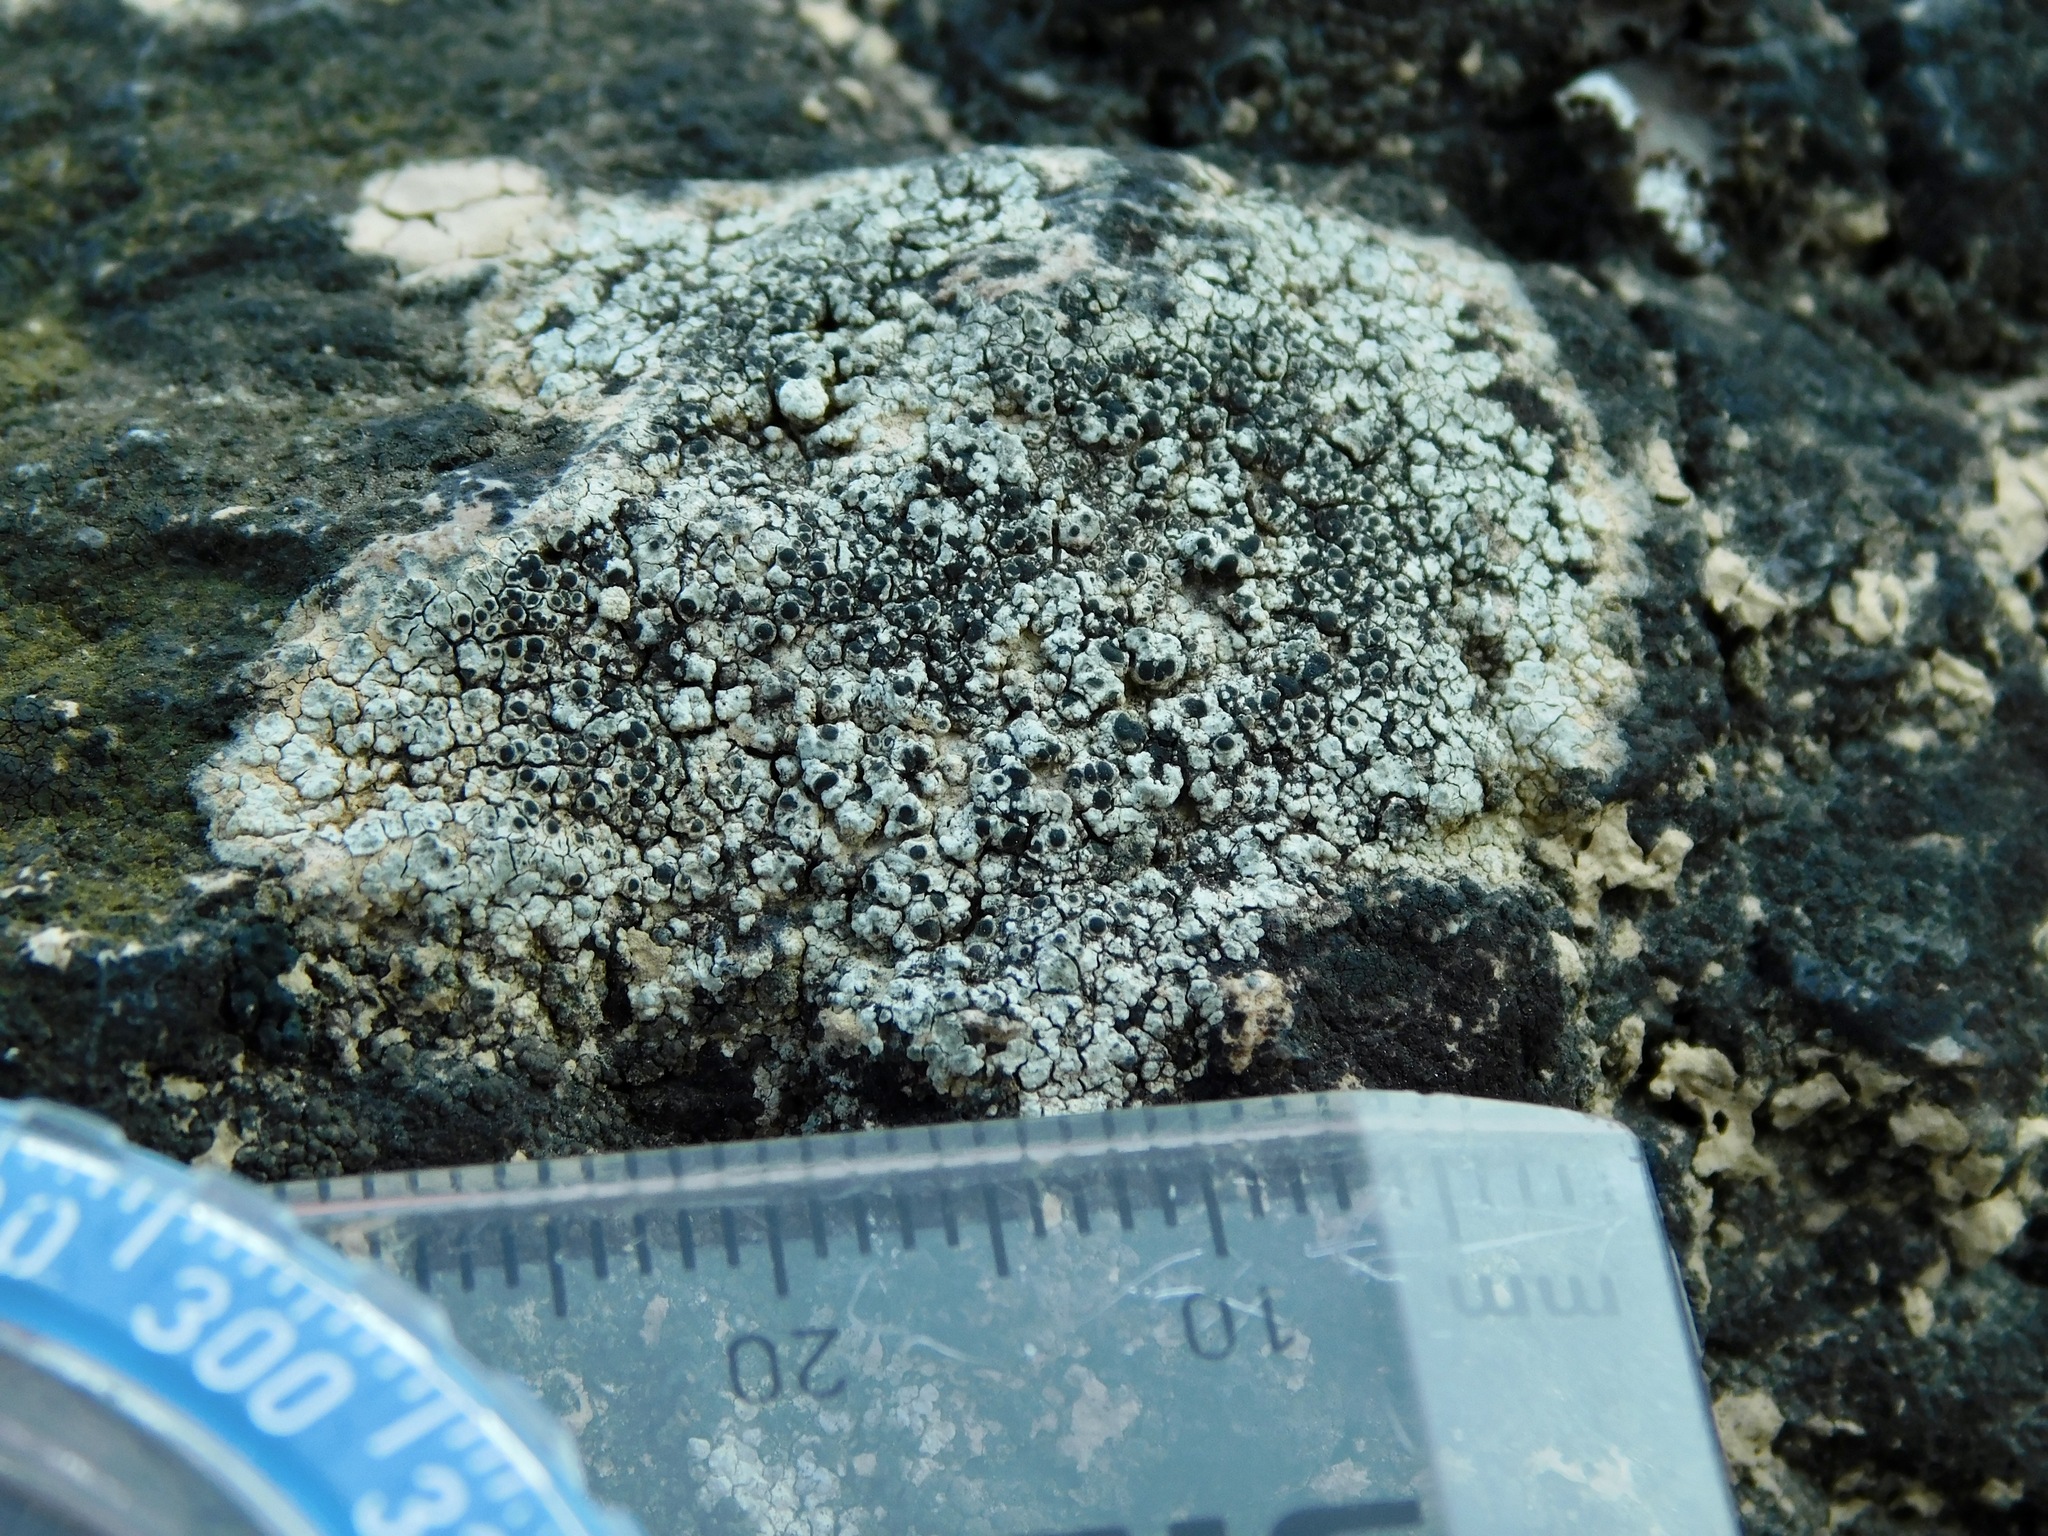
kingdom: Fungi
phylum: Ascomycota
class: Lecanoromycetes
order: Caliciales
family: Physciaceae
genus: Mischoblastia
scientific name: Mischoblastia oxydata
